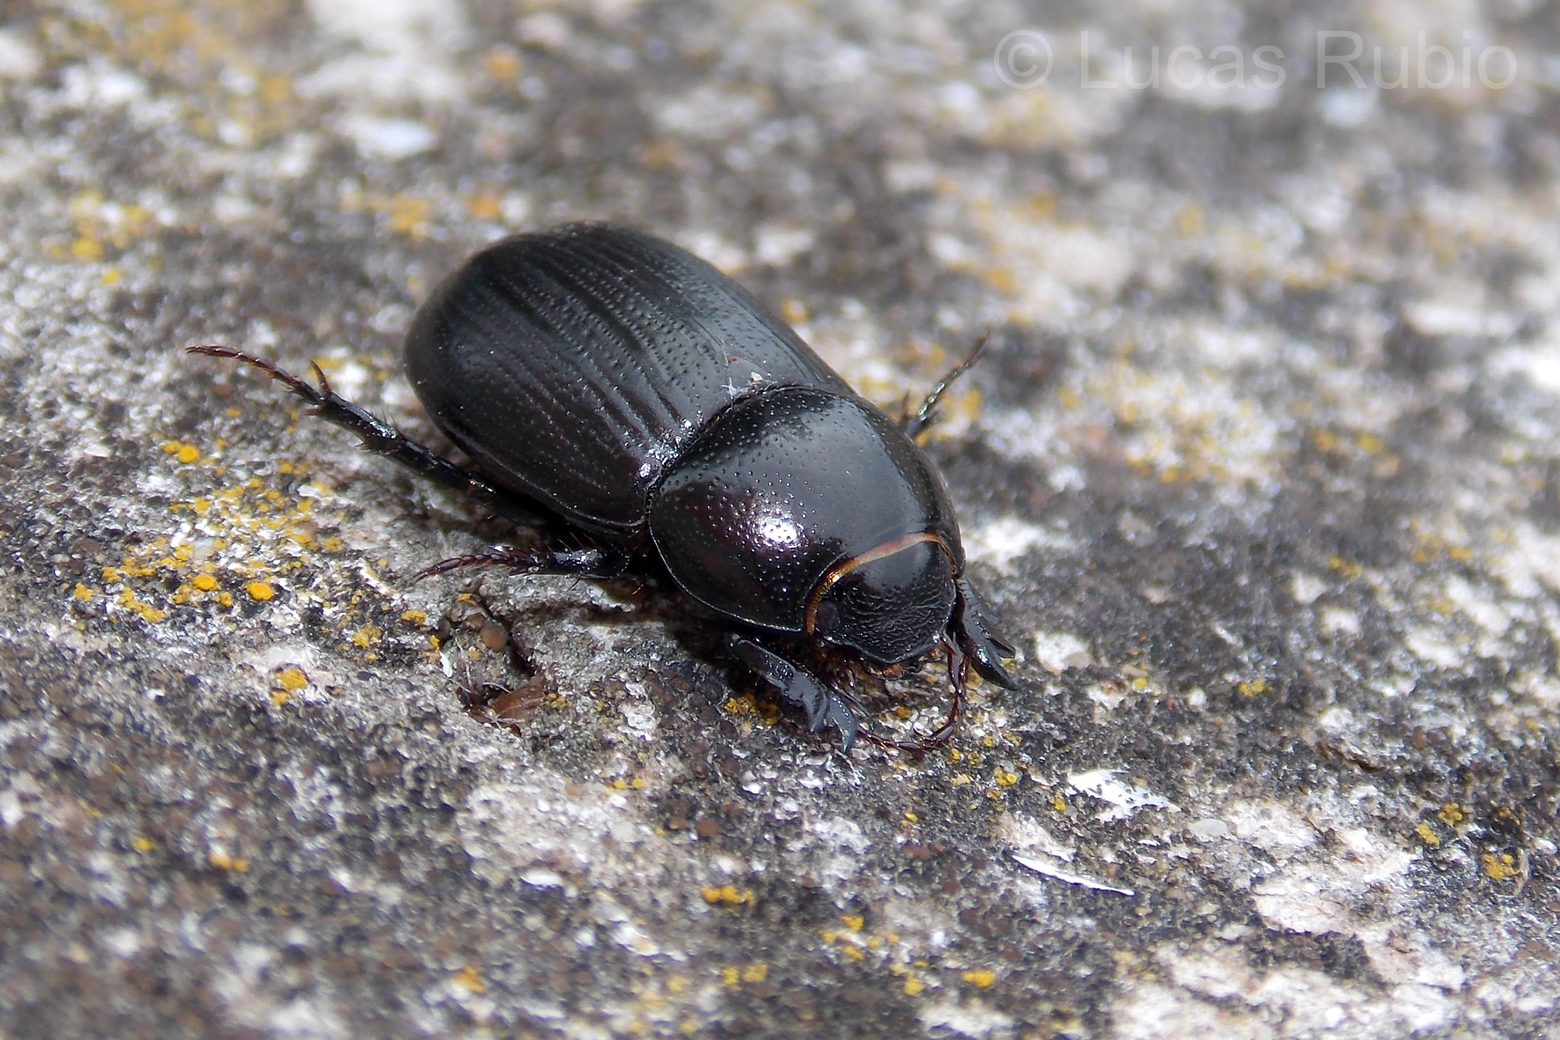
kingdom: Animalia
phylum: Arthropoda
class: Insecta
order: Coleoptera
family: Scarabaeidae
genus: Dyscinetus
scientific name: Dyscinetus gagates
